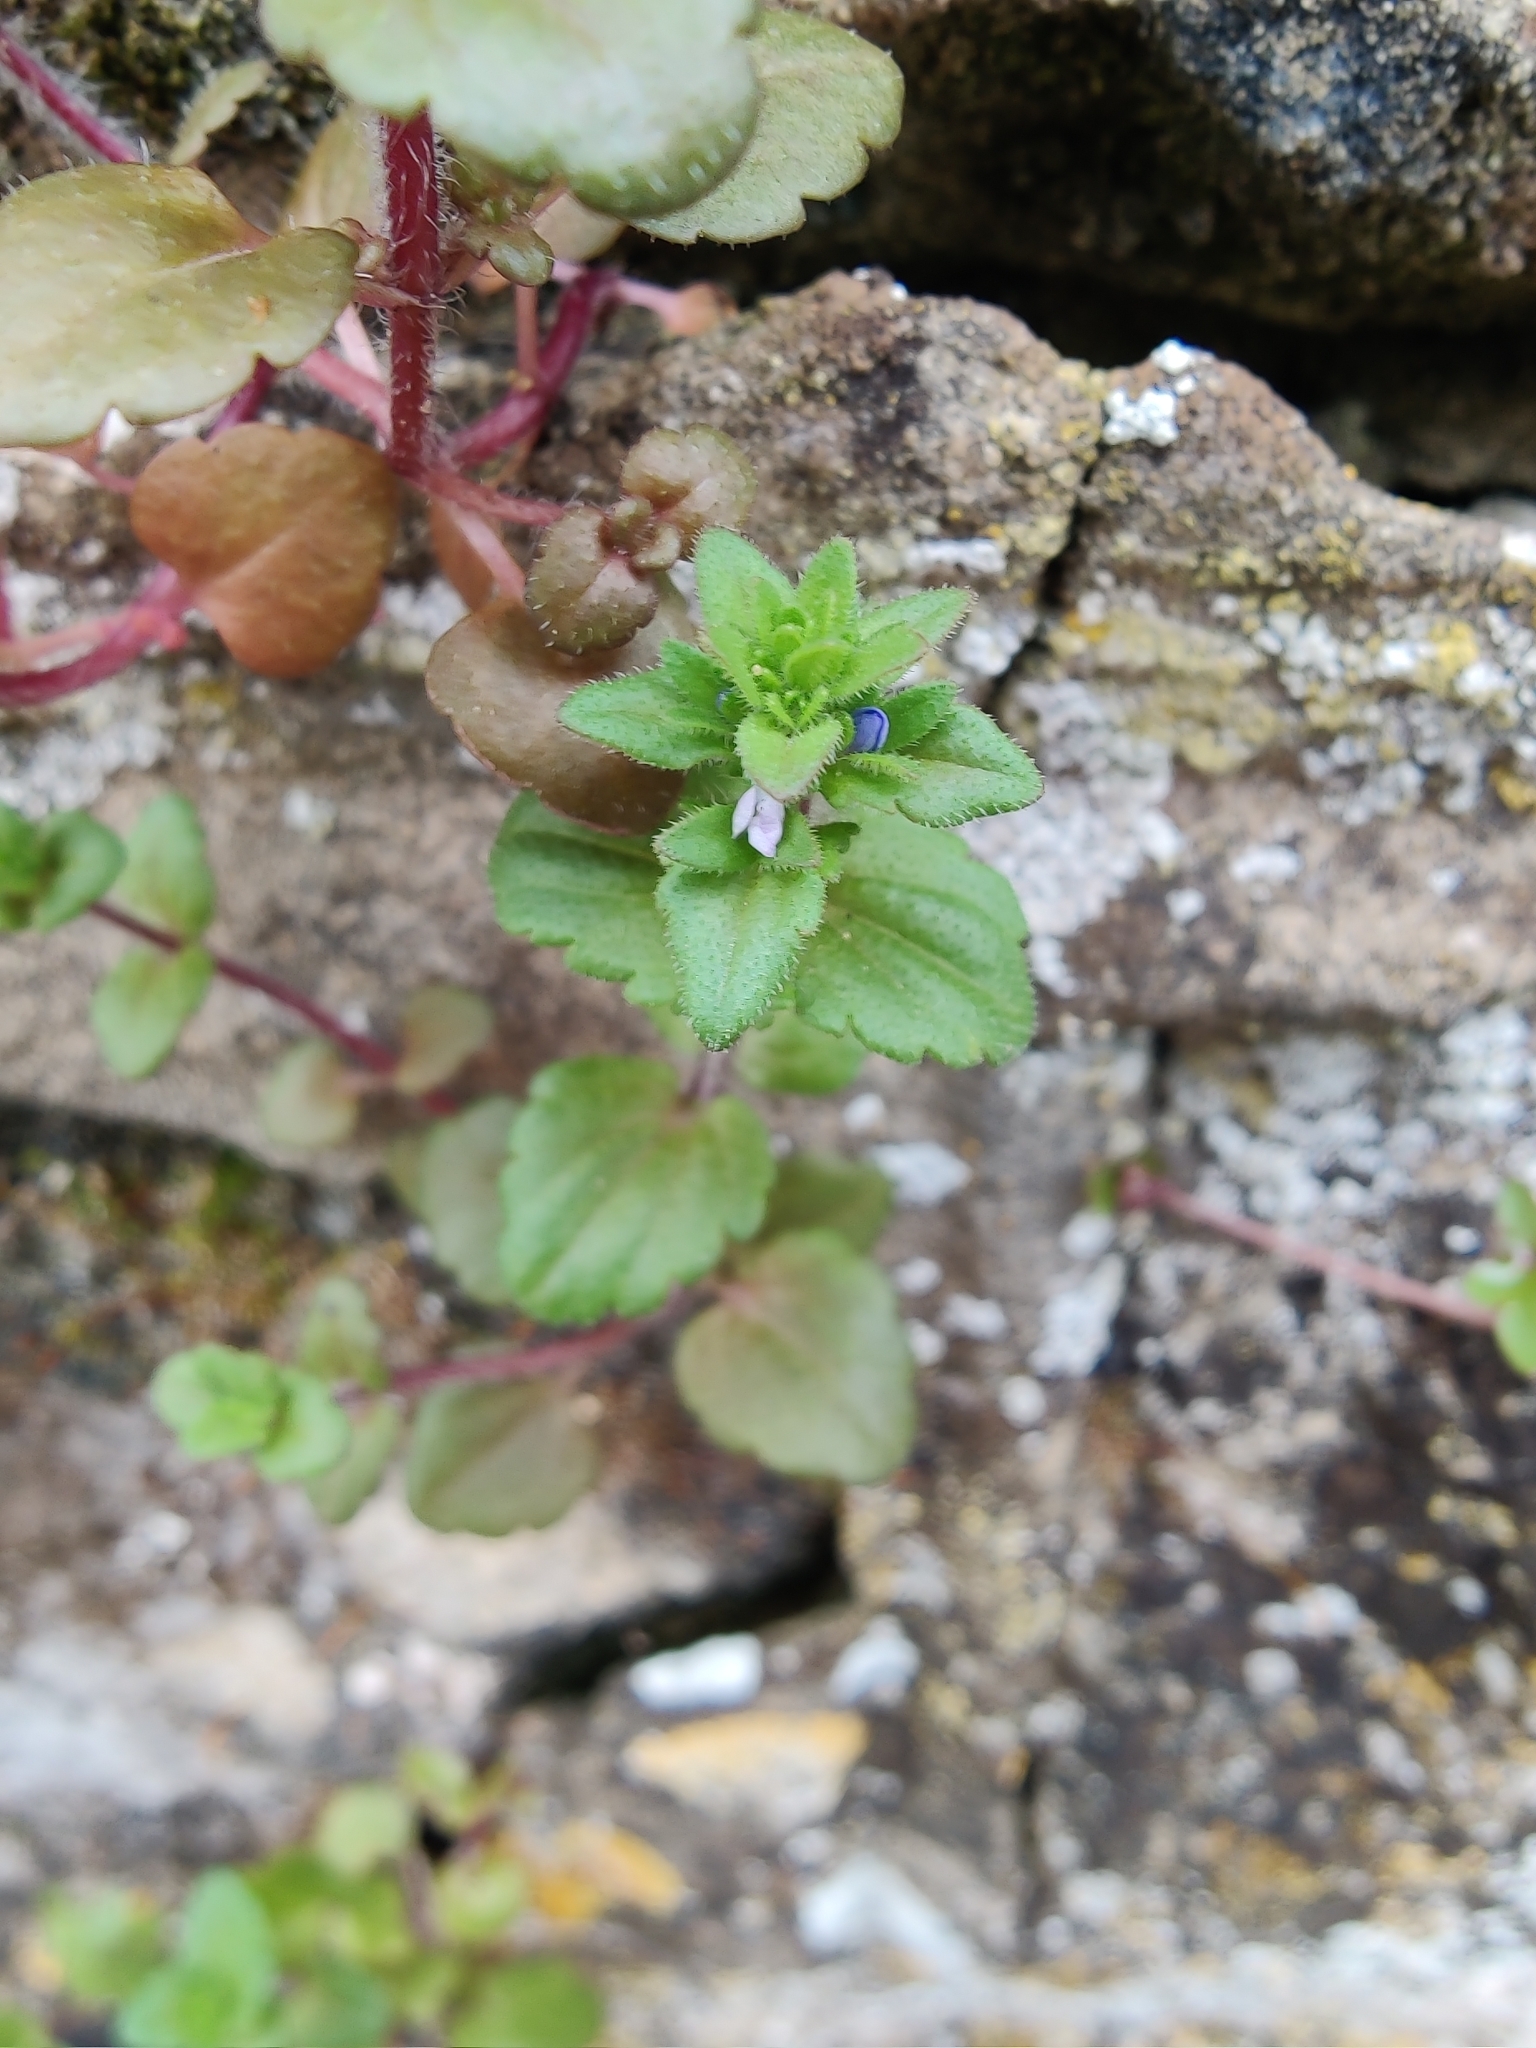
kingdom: Plantae
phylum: Tracheophyta
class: Magnoliopsida
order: Lamiales
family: Plantaginaceae
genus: Veronica
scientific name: Veronica arvensis
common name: Corn speedwell
